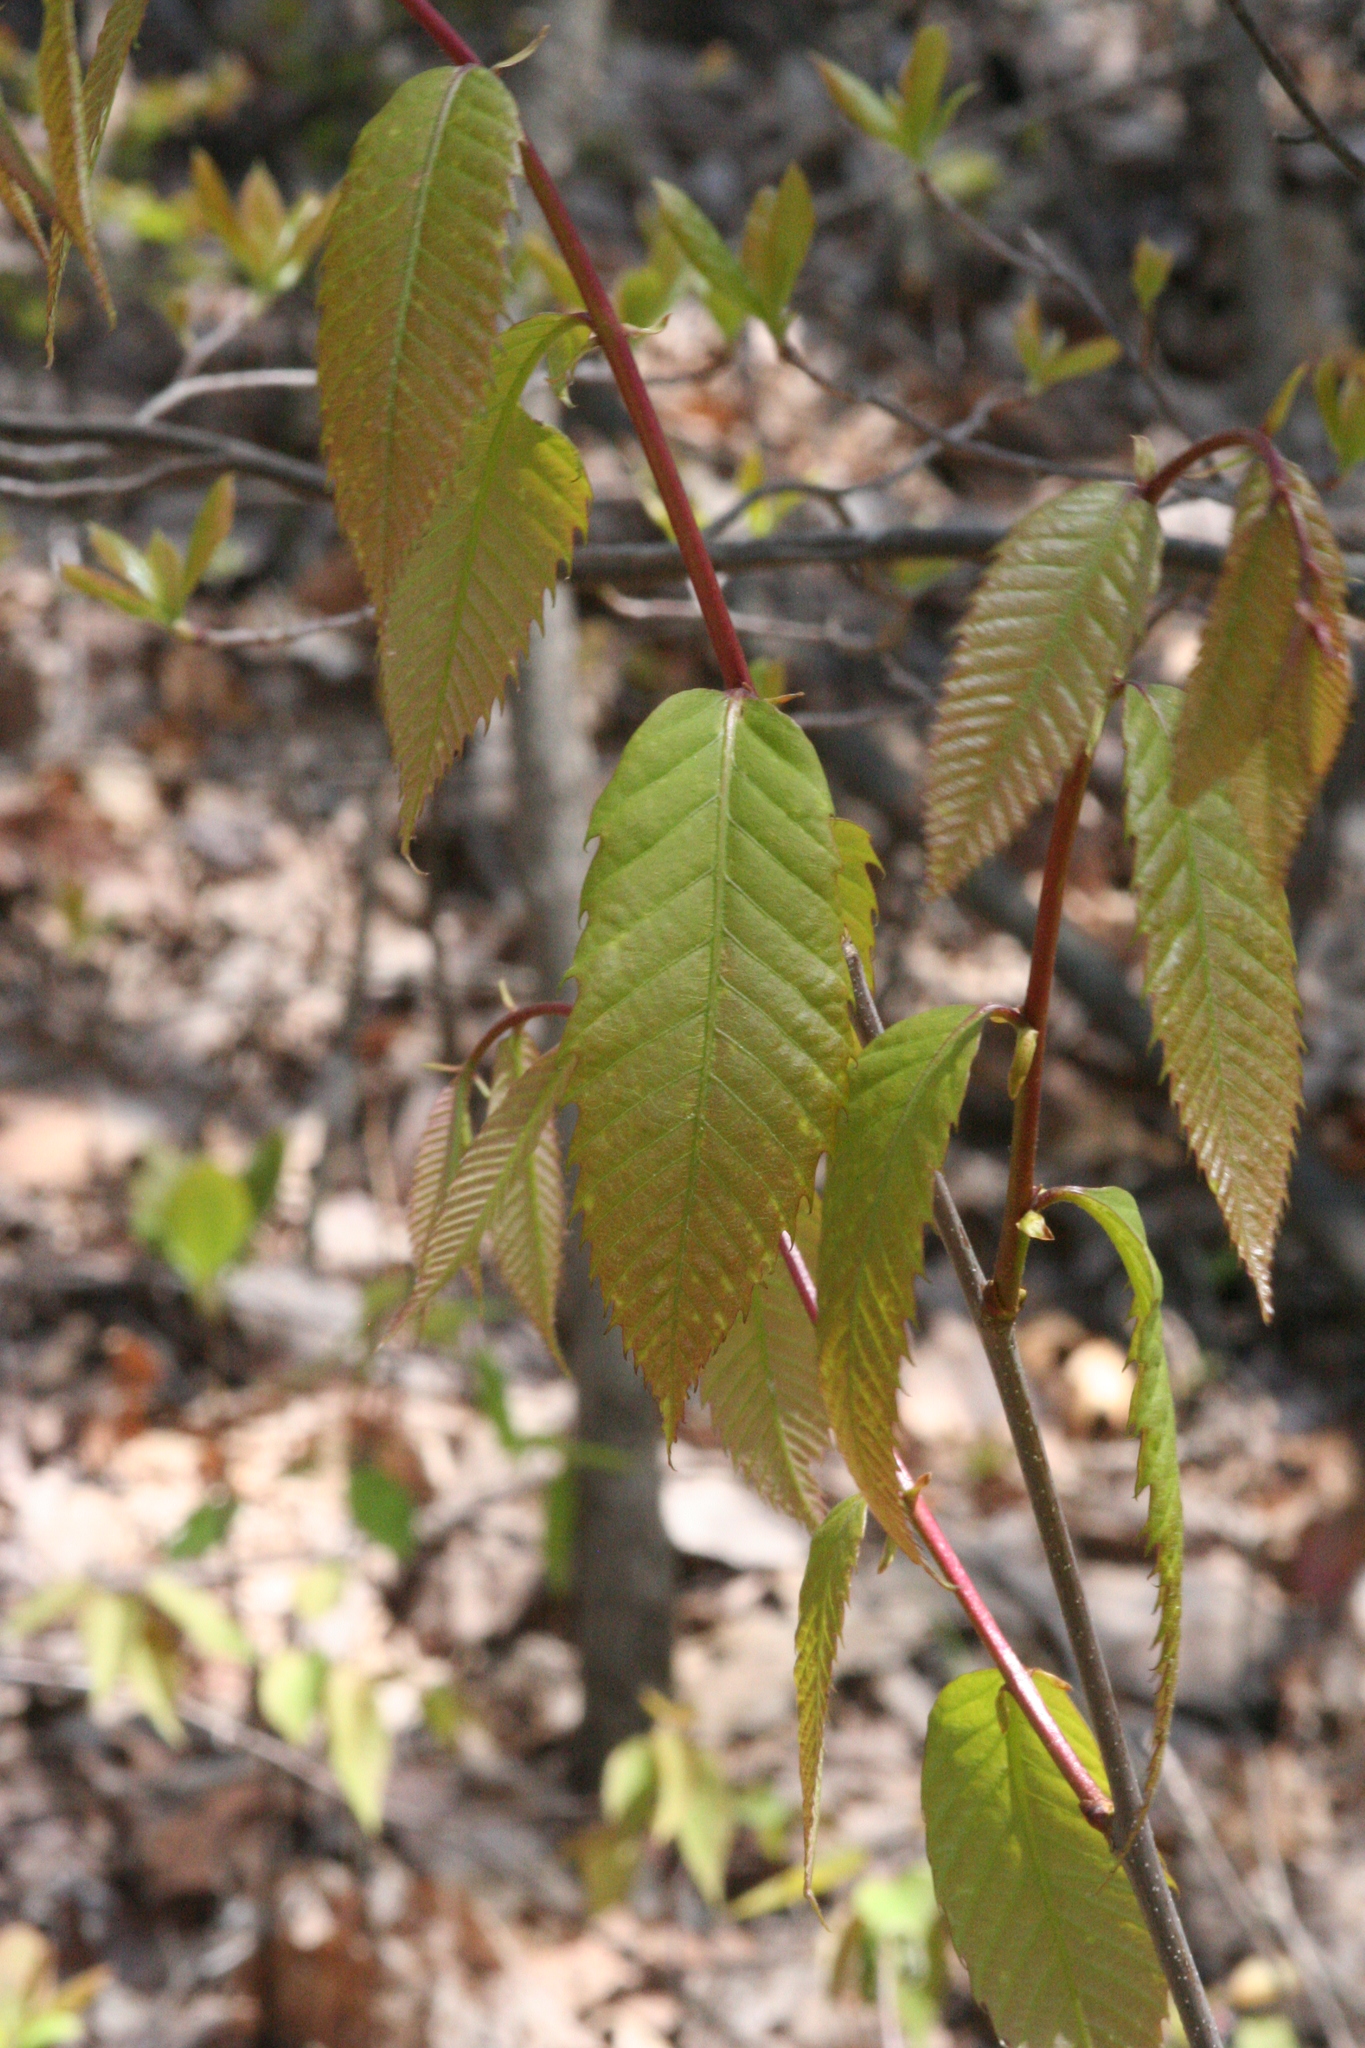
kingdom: Plantae
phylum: Tracheophyta
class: Magnoliopsida
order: Fagales
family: Fagaceae
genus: Castanea
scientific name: Castanea dentata
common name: American chestnut
